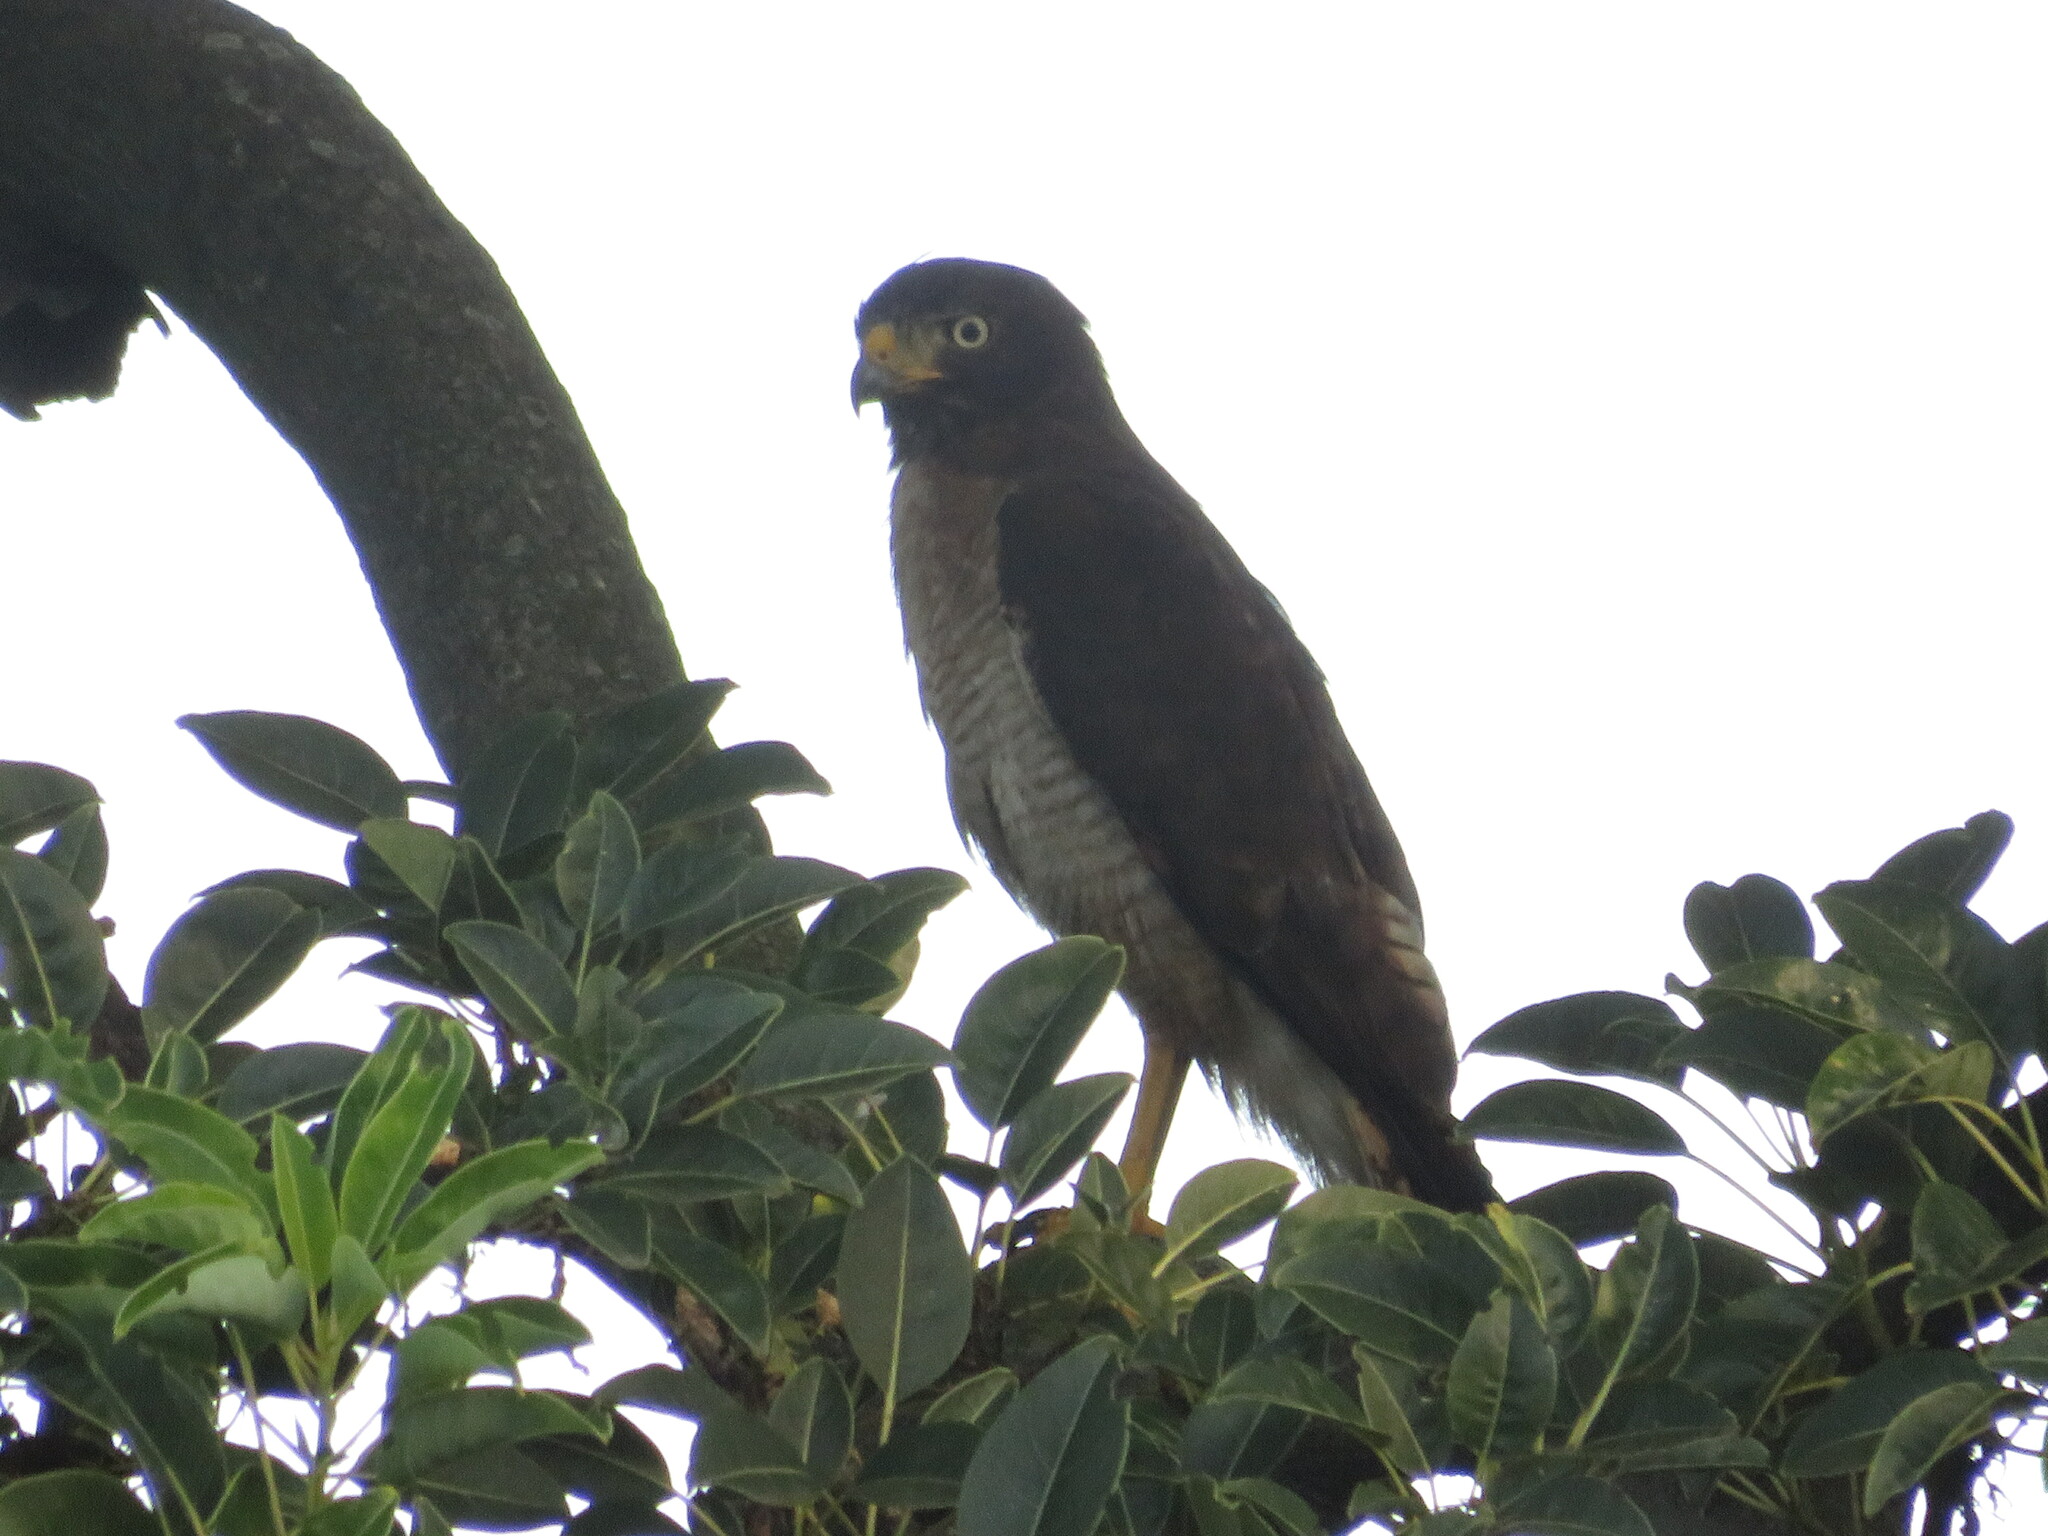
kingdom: Animalia
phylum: Chordata
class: Aves
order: Accipitriformes
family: Accipitridae
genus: Rupornis
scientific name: Rupornis magnirostris
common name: Roadside hawk
